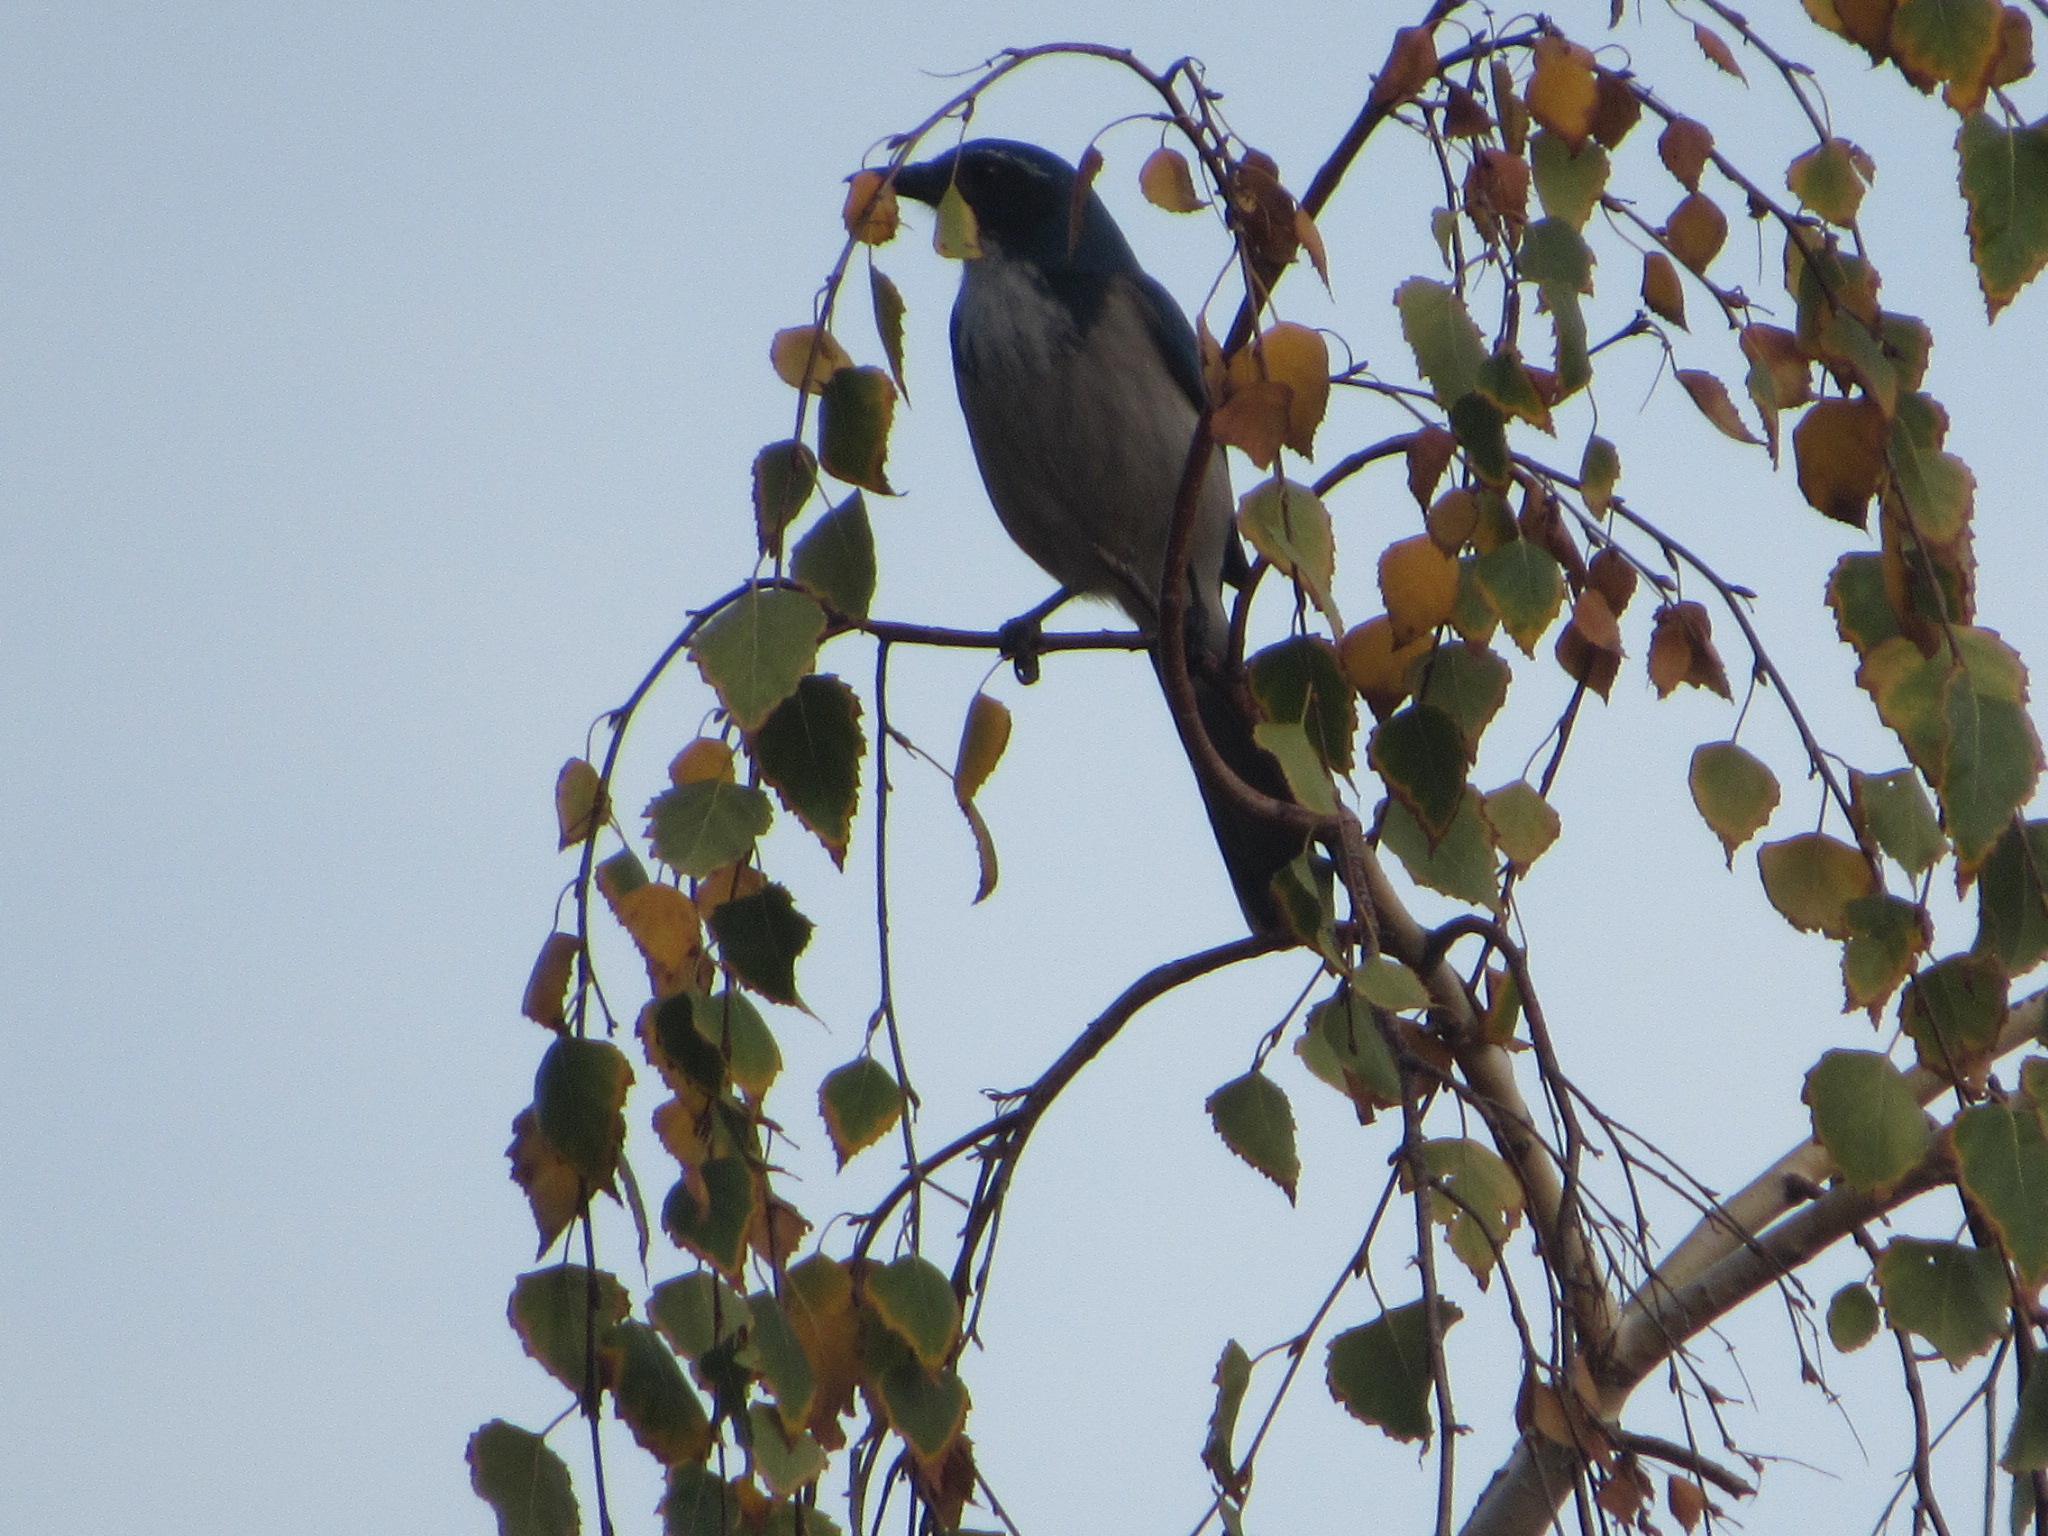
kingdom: Animalia
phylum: Chordata
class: Aves
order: Passeriformes
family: Corvidae
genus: Aphelocoma
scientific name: Aphelocoma californica
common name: California scrub-jay
